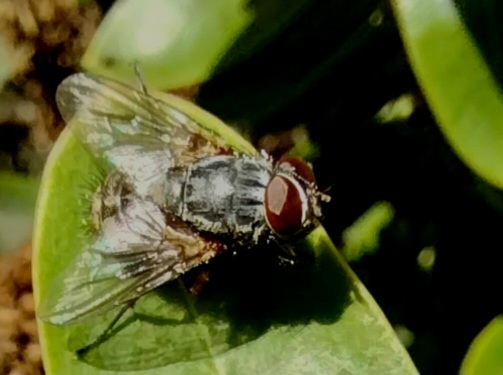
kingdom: Animalia
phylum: Arthropoda
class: Insecta
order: Diptera
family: Muscidae
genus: Muscina
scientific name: Muscina stabulans
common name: False stable fly
